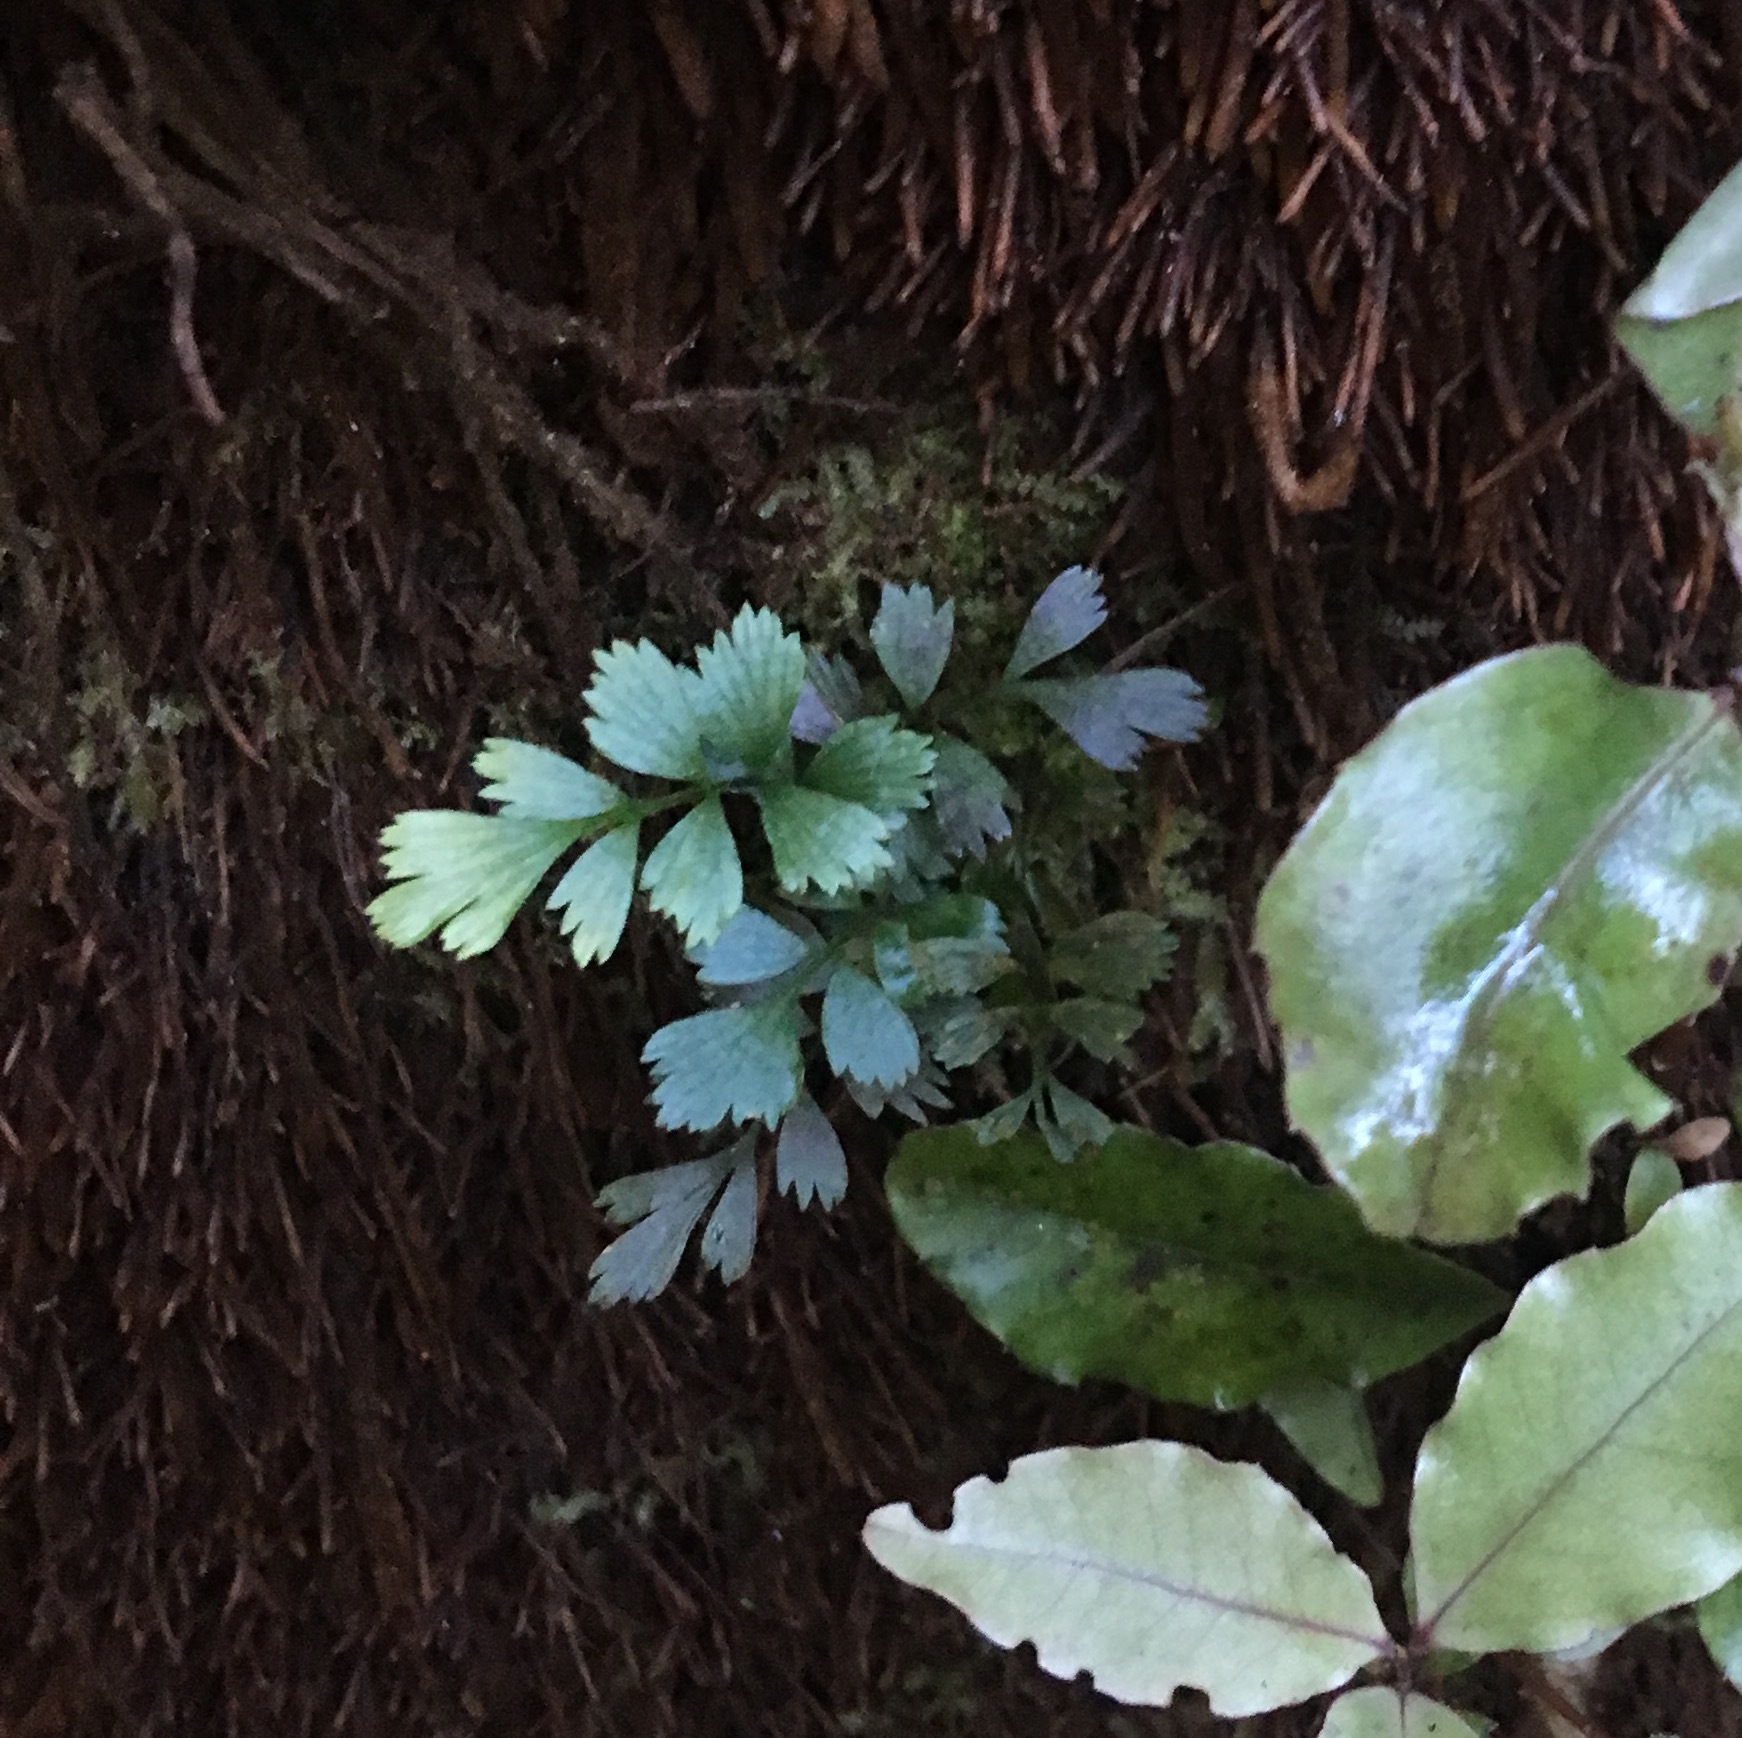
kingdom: Plantae
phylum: Tracheophyta
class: Polypodiopsida
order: Polypodiales
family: Aspleniaceae
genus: Asplenium
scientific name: Asplenium polyodon
